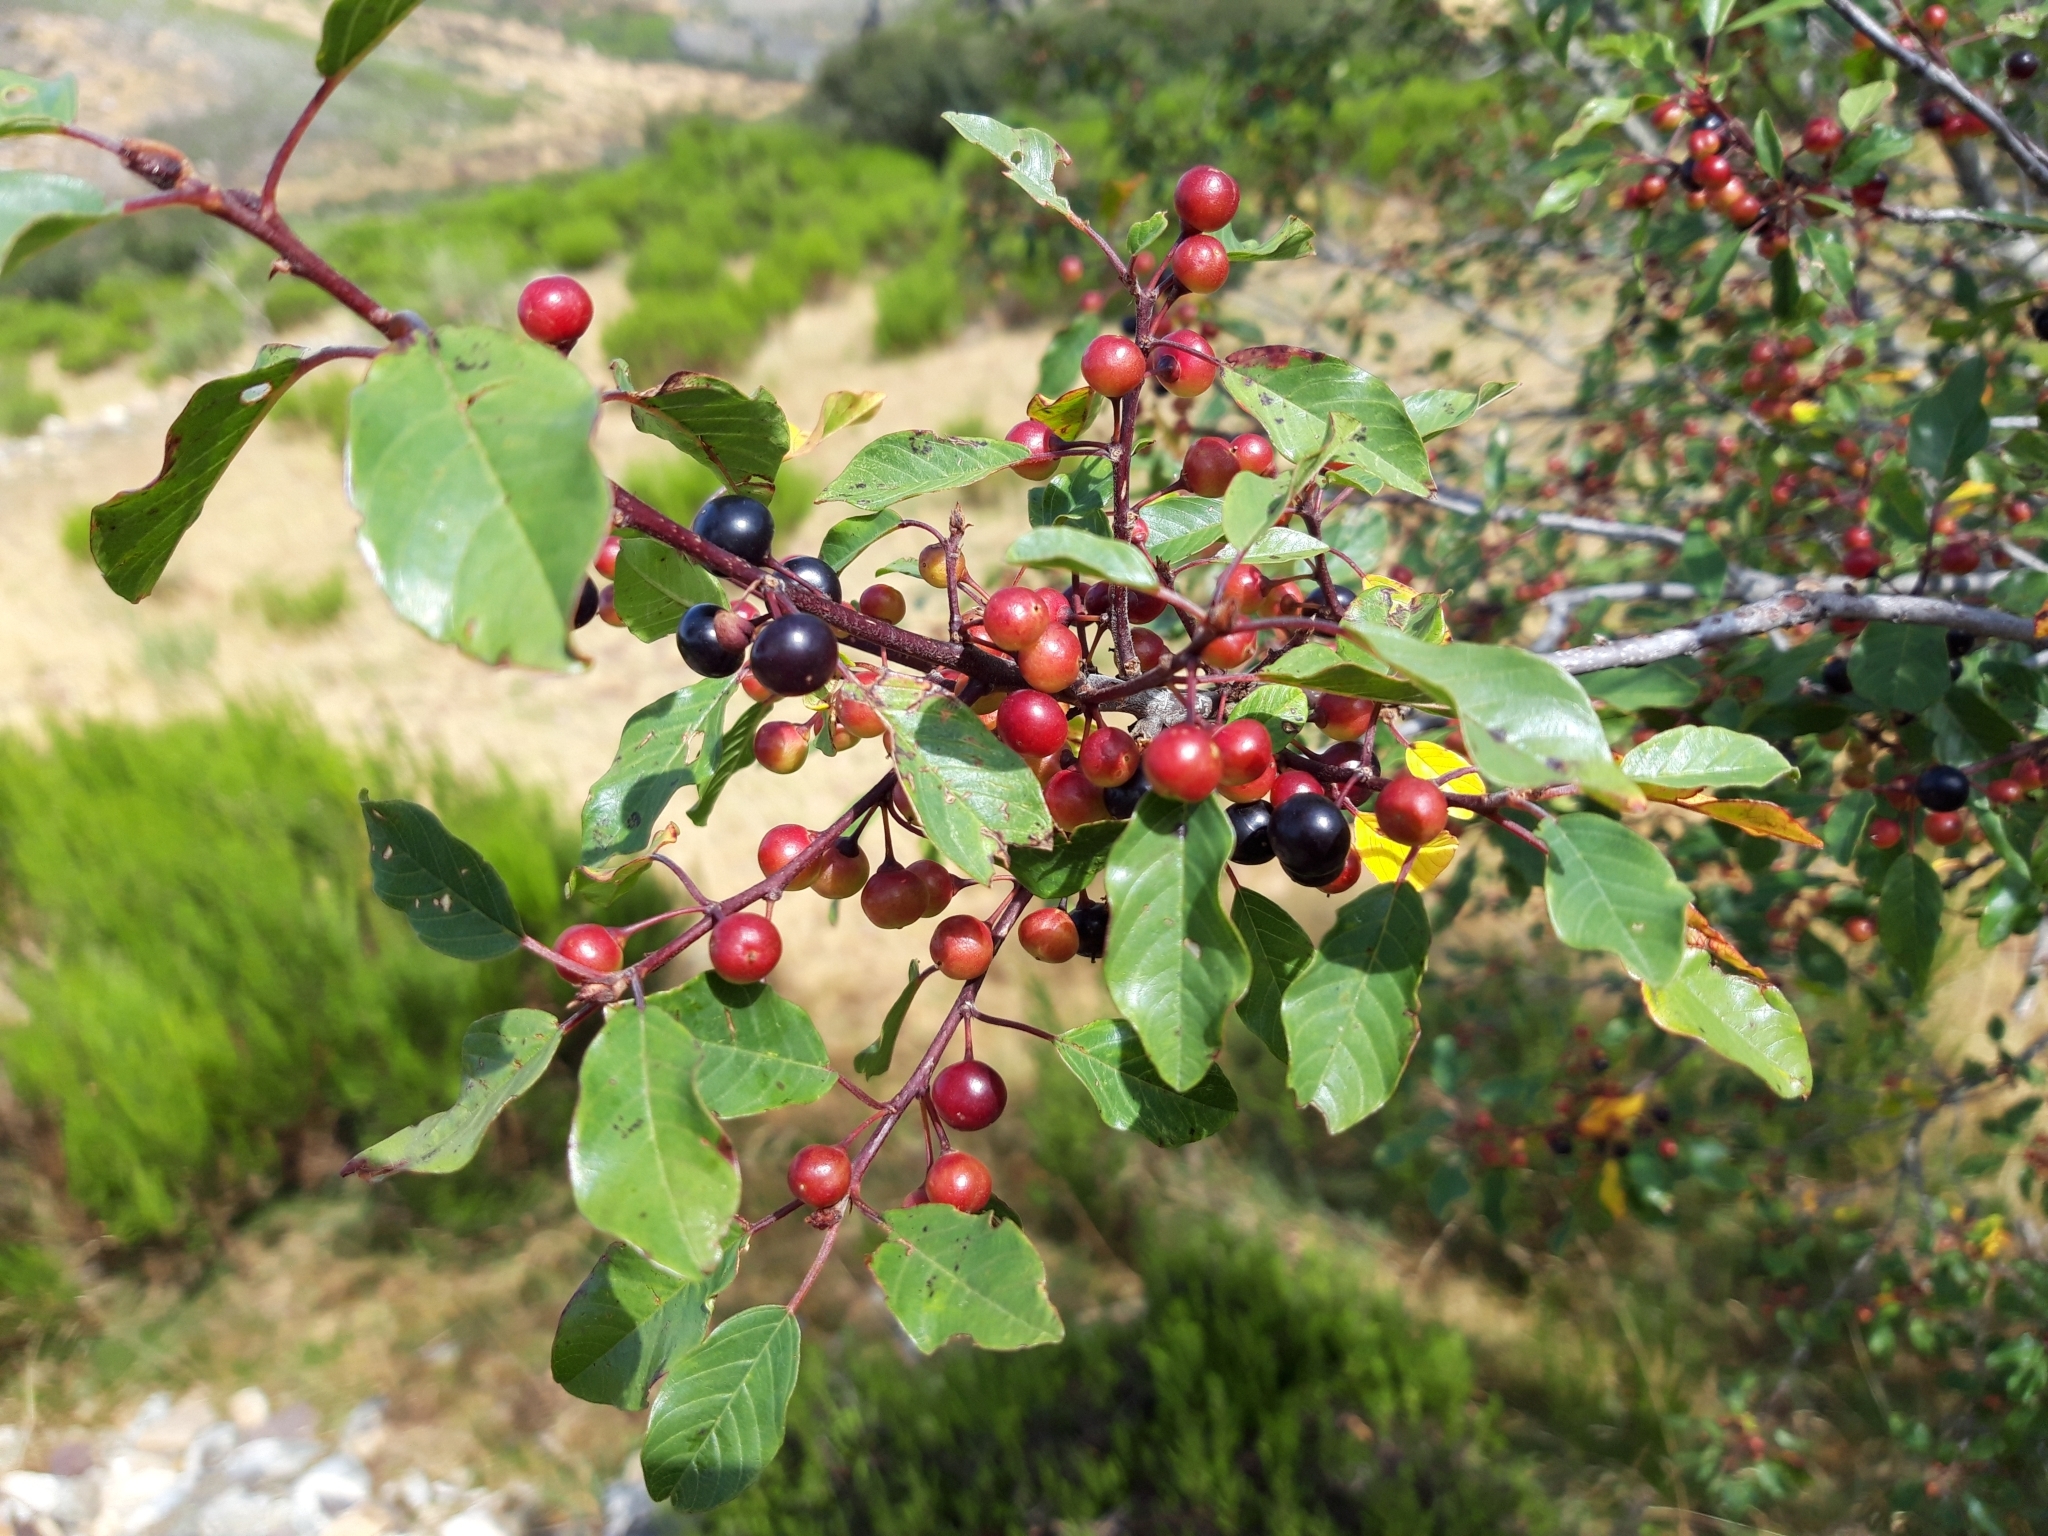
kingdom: Plantae
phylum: Tracheophyta
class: Magnoliopsida
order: Rosales
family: Rhamnaceae
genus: Frangula
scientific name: Frangula alnus
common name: Alder buckthorn
